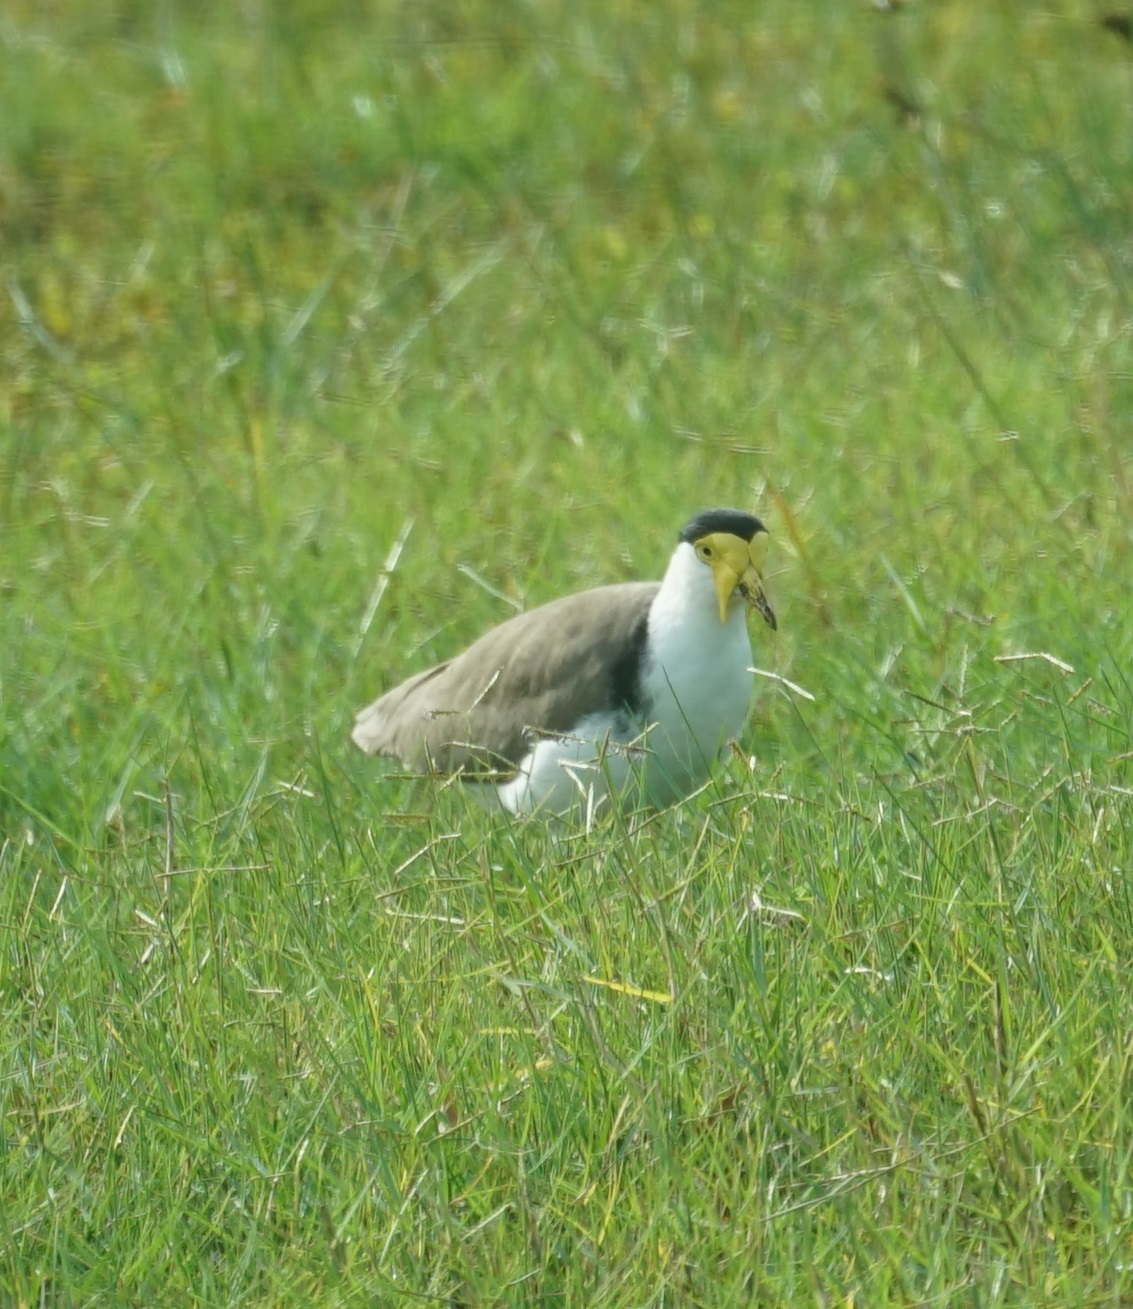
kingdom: Animalia
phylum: Chordata
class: Aves
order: Charadriiformes
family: Charadriidae
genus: Vanellus
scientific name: Vanellus miles
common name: Masked lapwing
